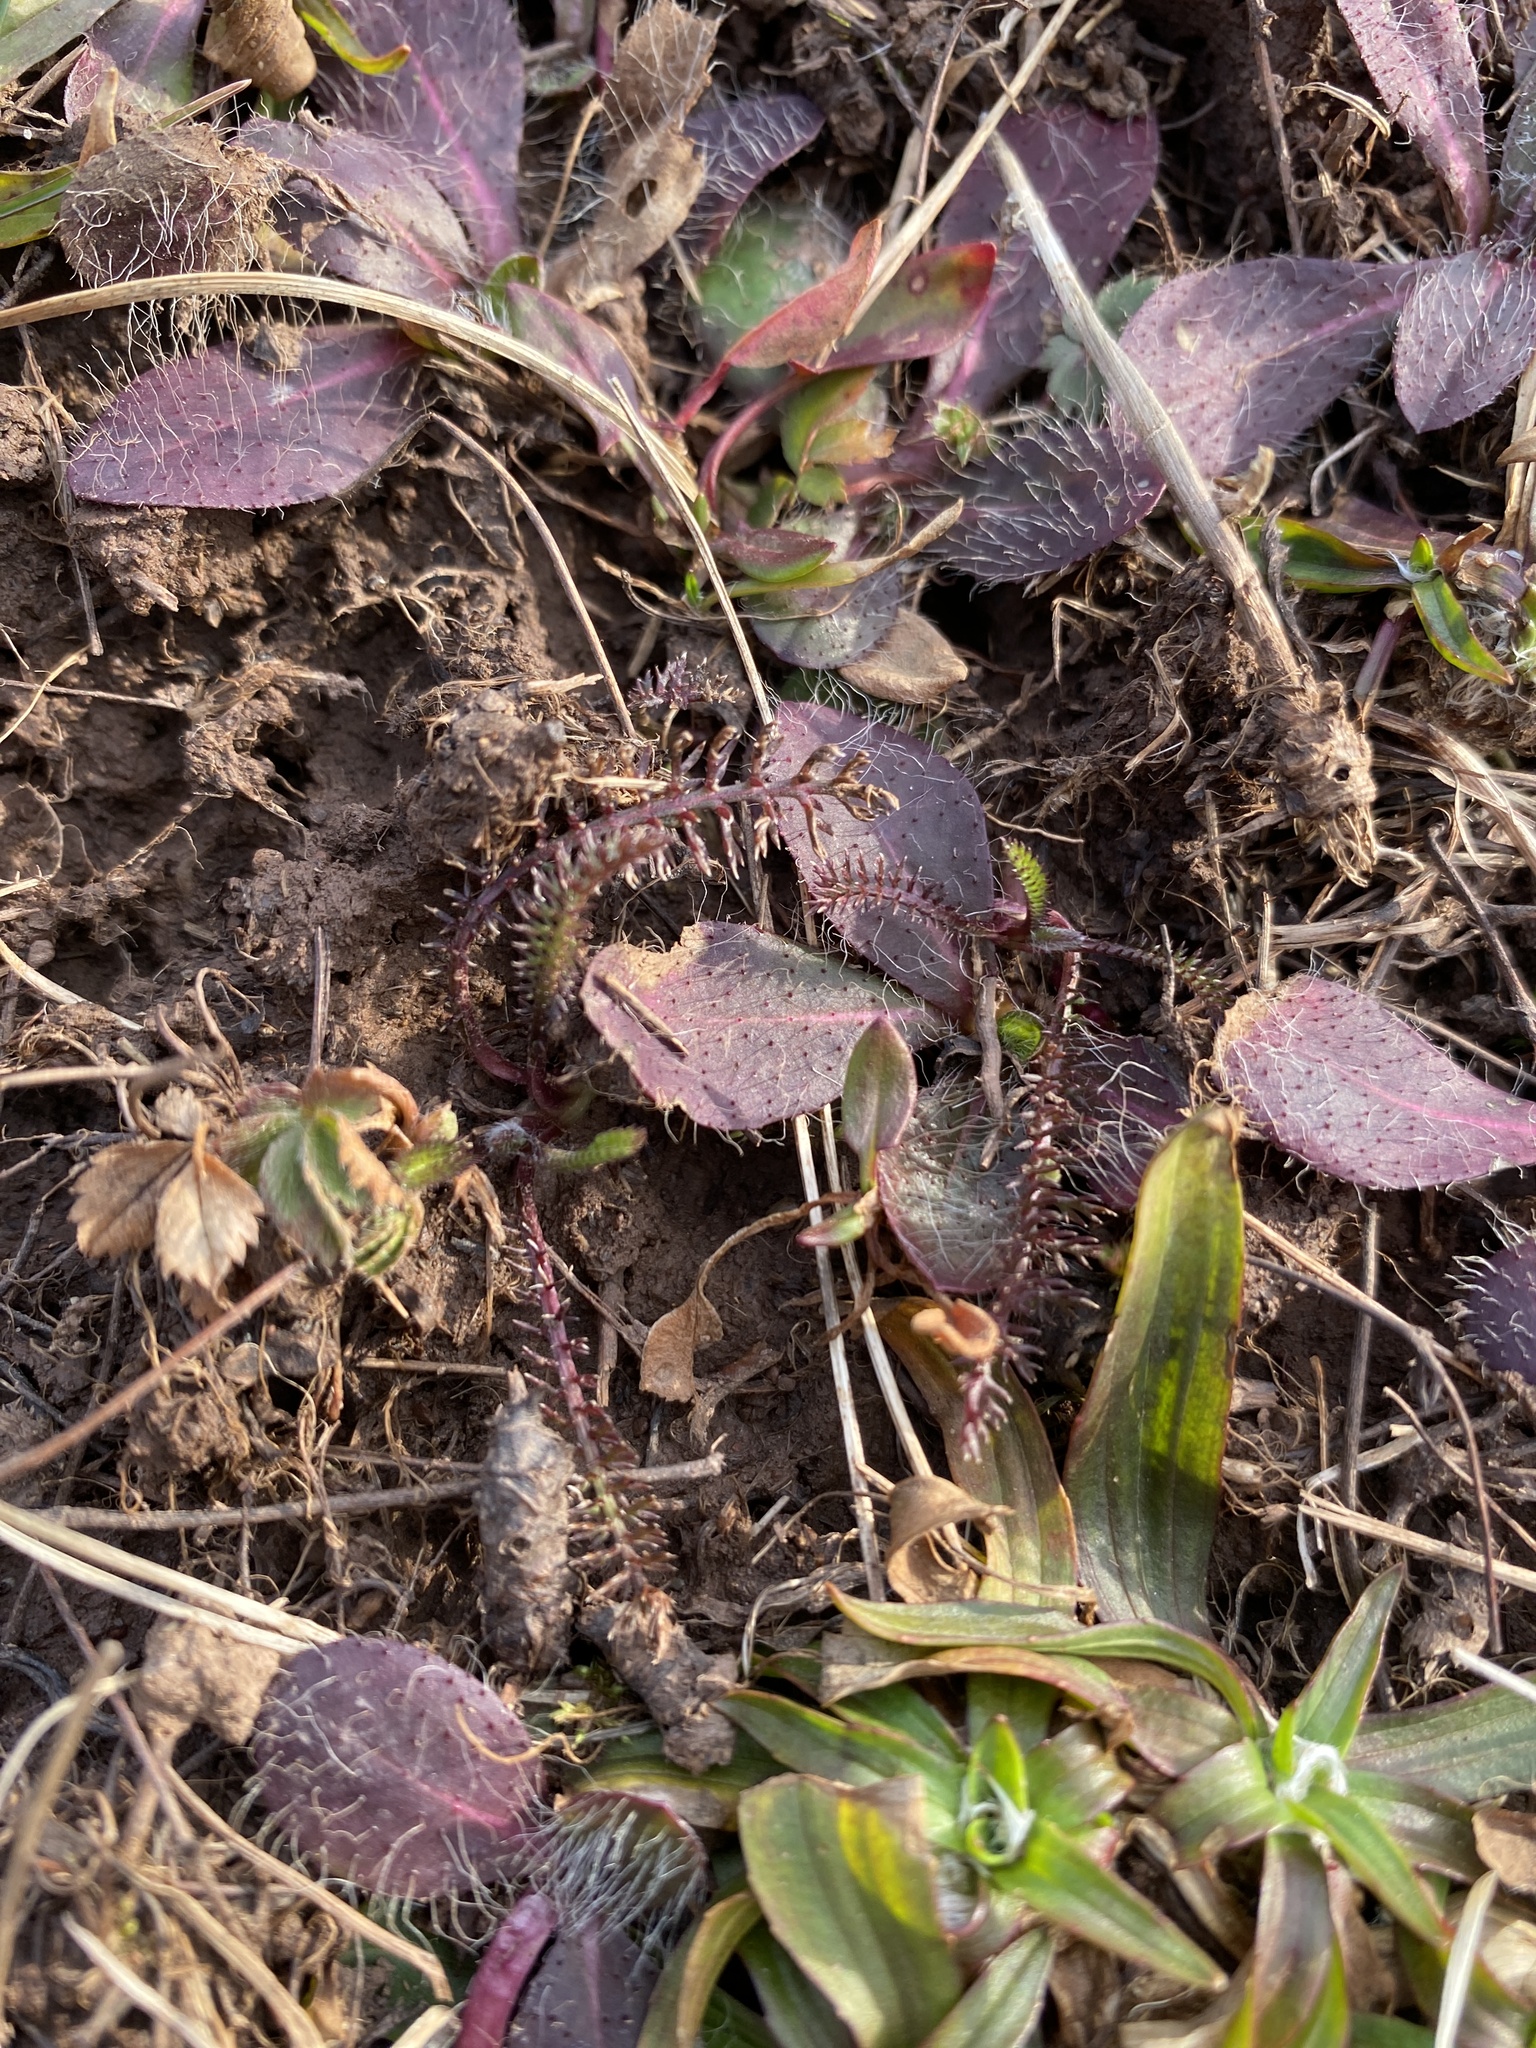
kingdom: Plantae
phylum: Tracheophyta
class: Magnoliopsida
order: Asterales
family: Asteraceae
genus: Achillea
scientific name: Achillea millefolium
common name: Yarrow
